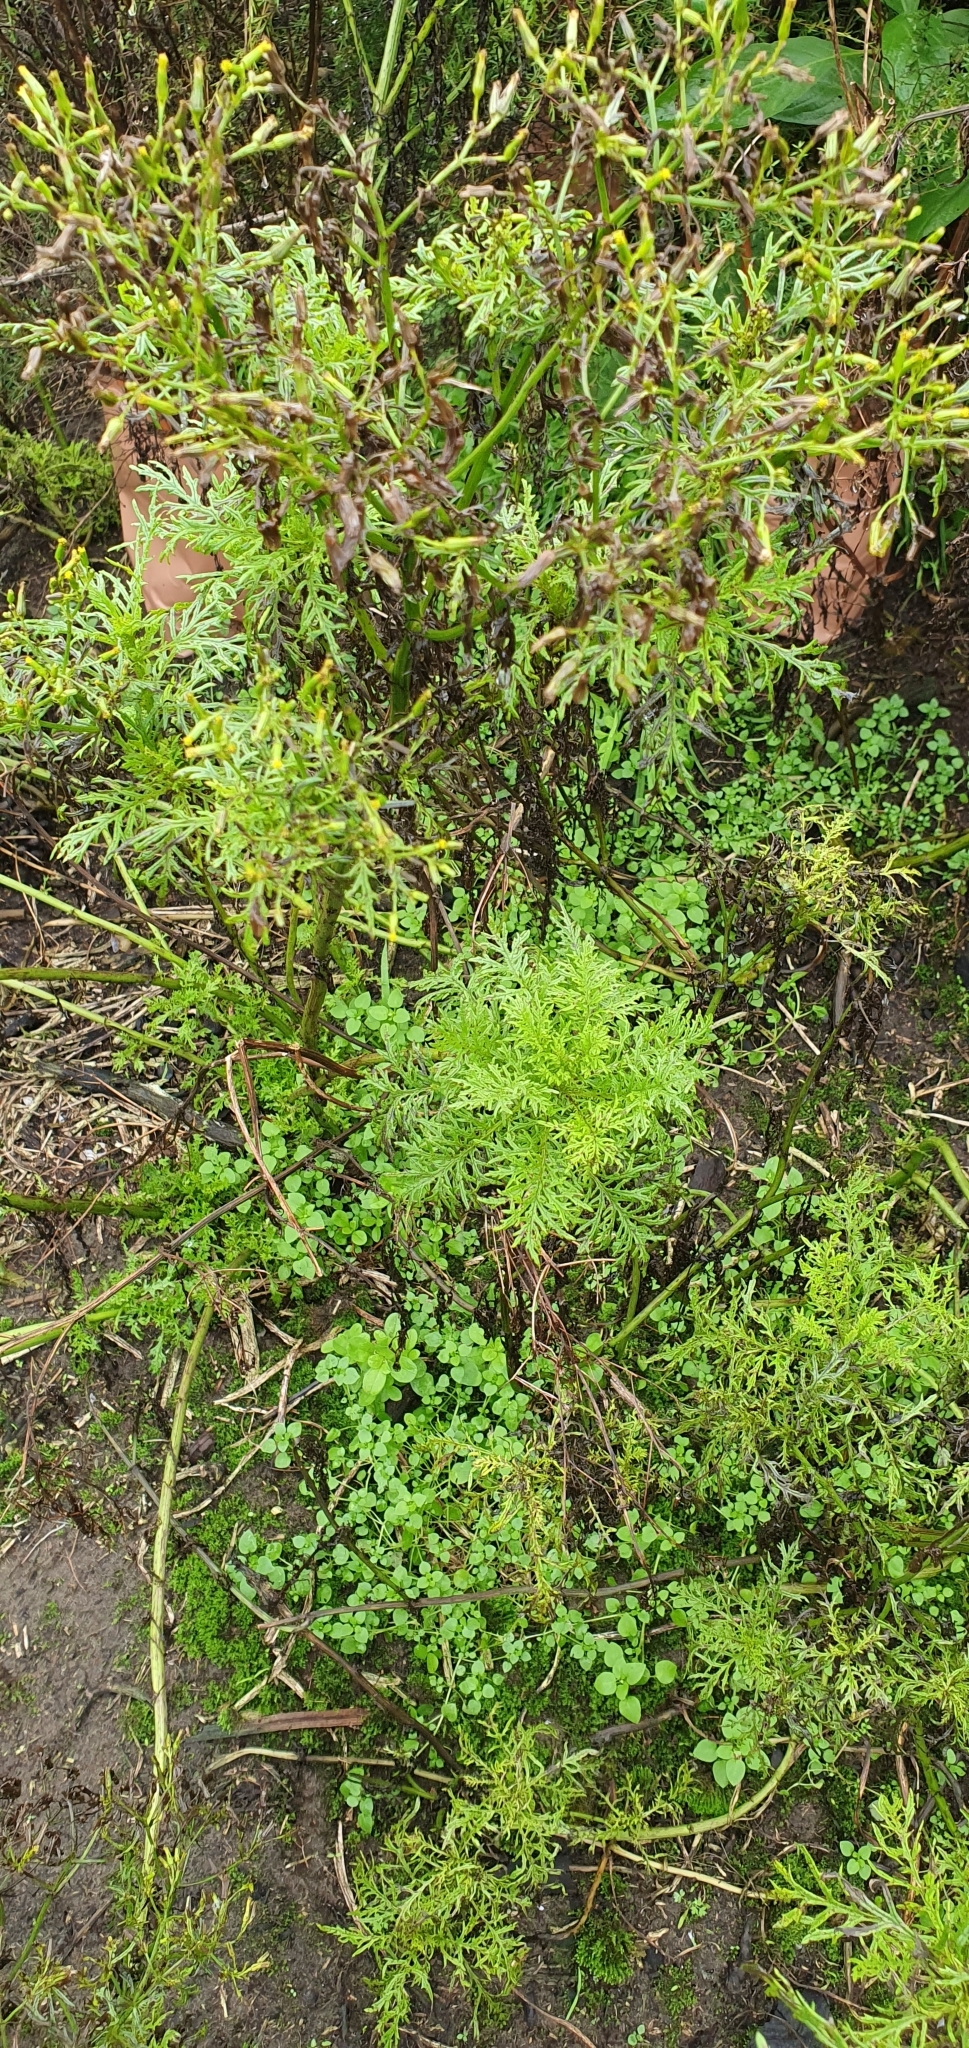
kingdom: Plantae
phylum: Tracheophyta
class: Magnoliopsida
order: Asterales
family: Asteraceae
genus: Senecio
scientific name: Senecio bipinnatisectus
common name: Australian fireweed
